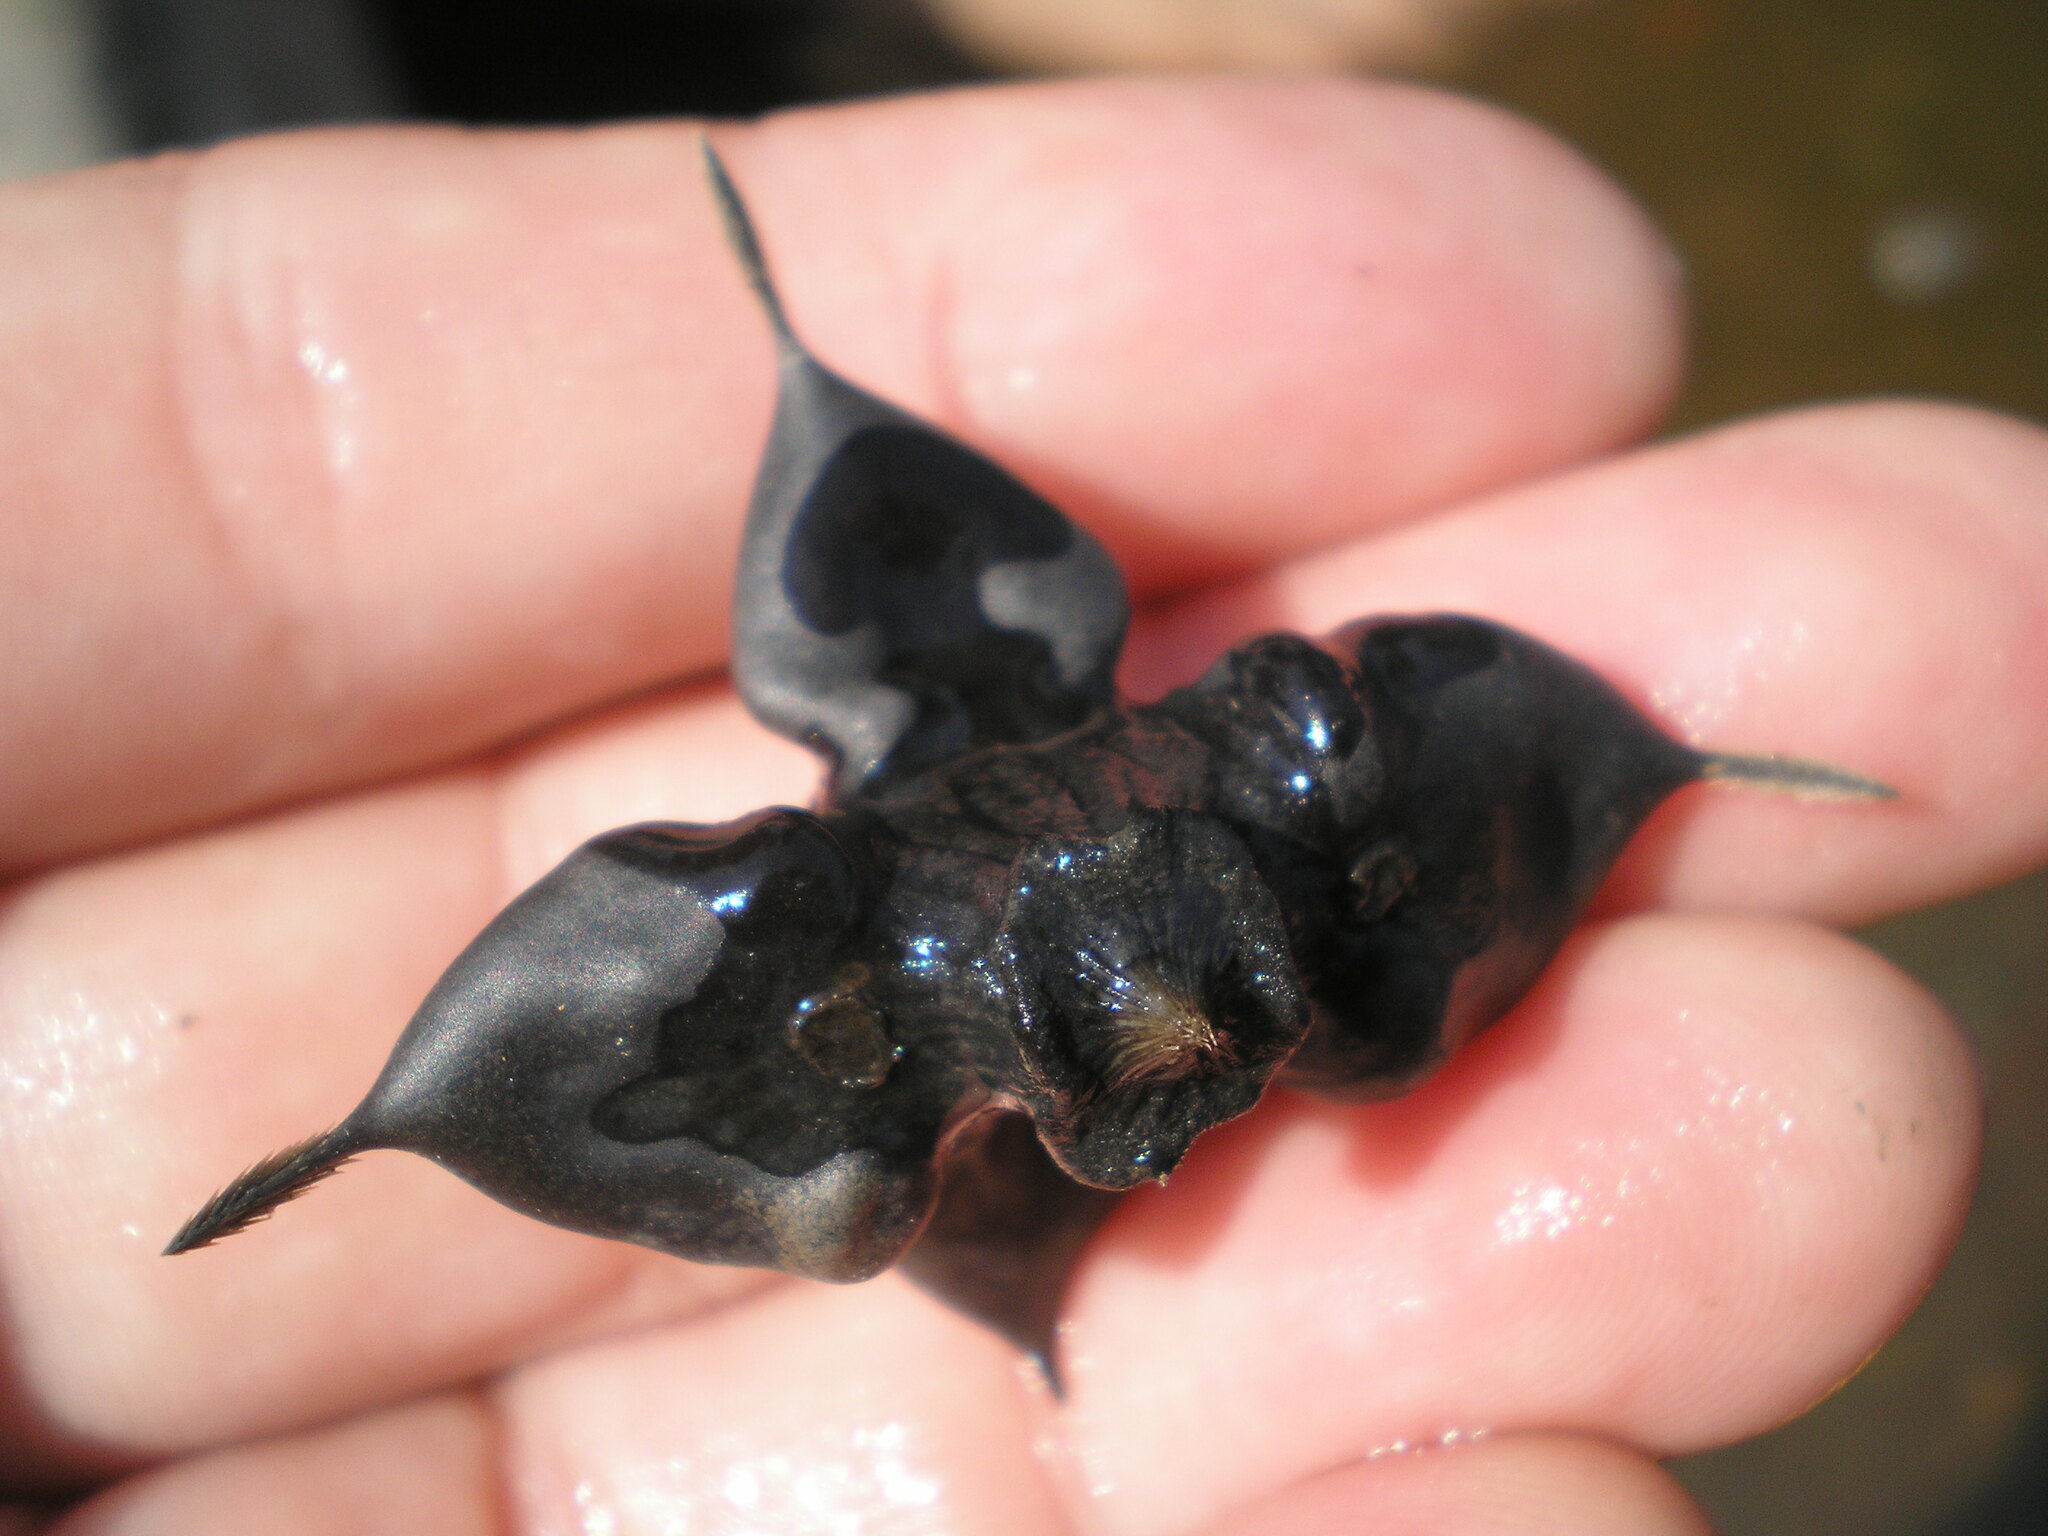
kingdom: Plantae
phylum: Tracheophyta
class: Magnoliopsida
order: Myrtales
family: Lythraceae
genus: Trapa
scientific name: Trapa natans
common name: Water chestnut
